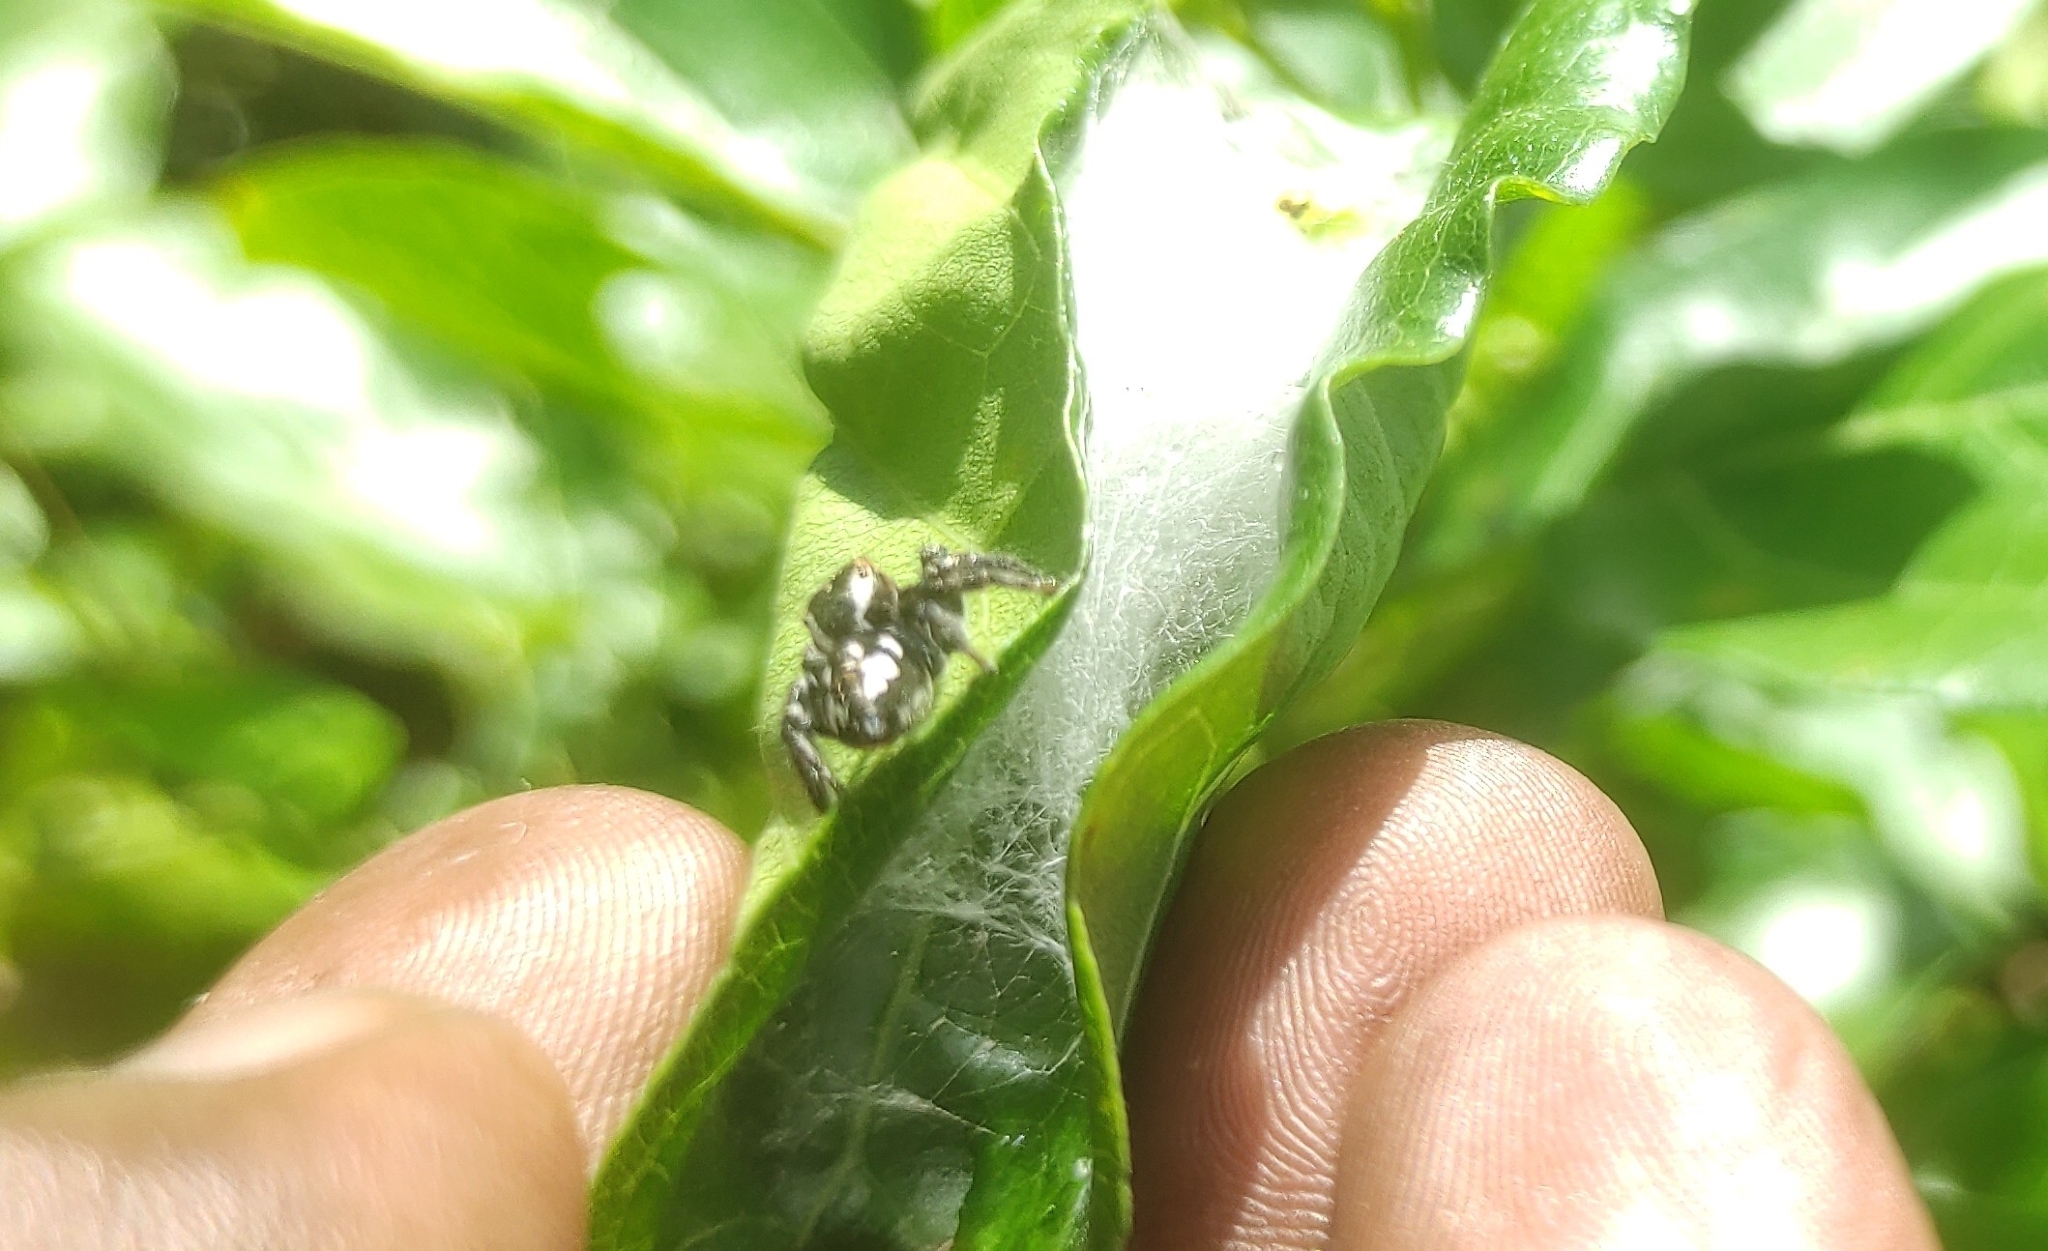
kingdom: Animalia
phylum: Arthropoda
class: Arachnida
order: Araneae
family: Salticidae
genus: Carrhotus
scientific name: Carrhotus viduus
